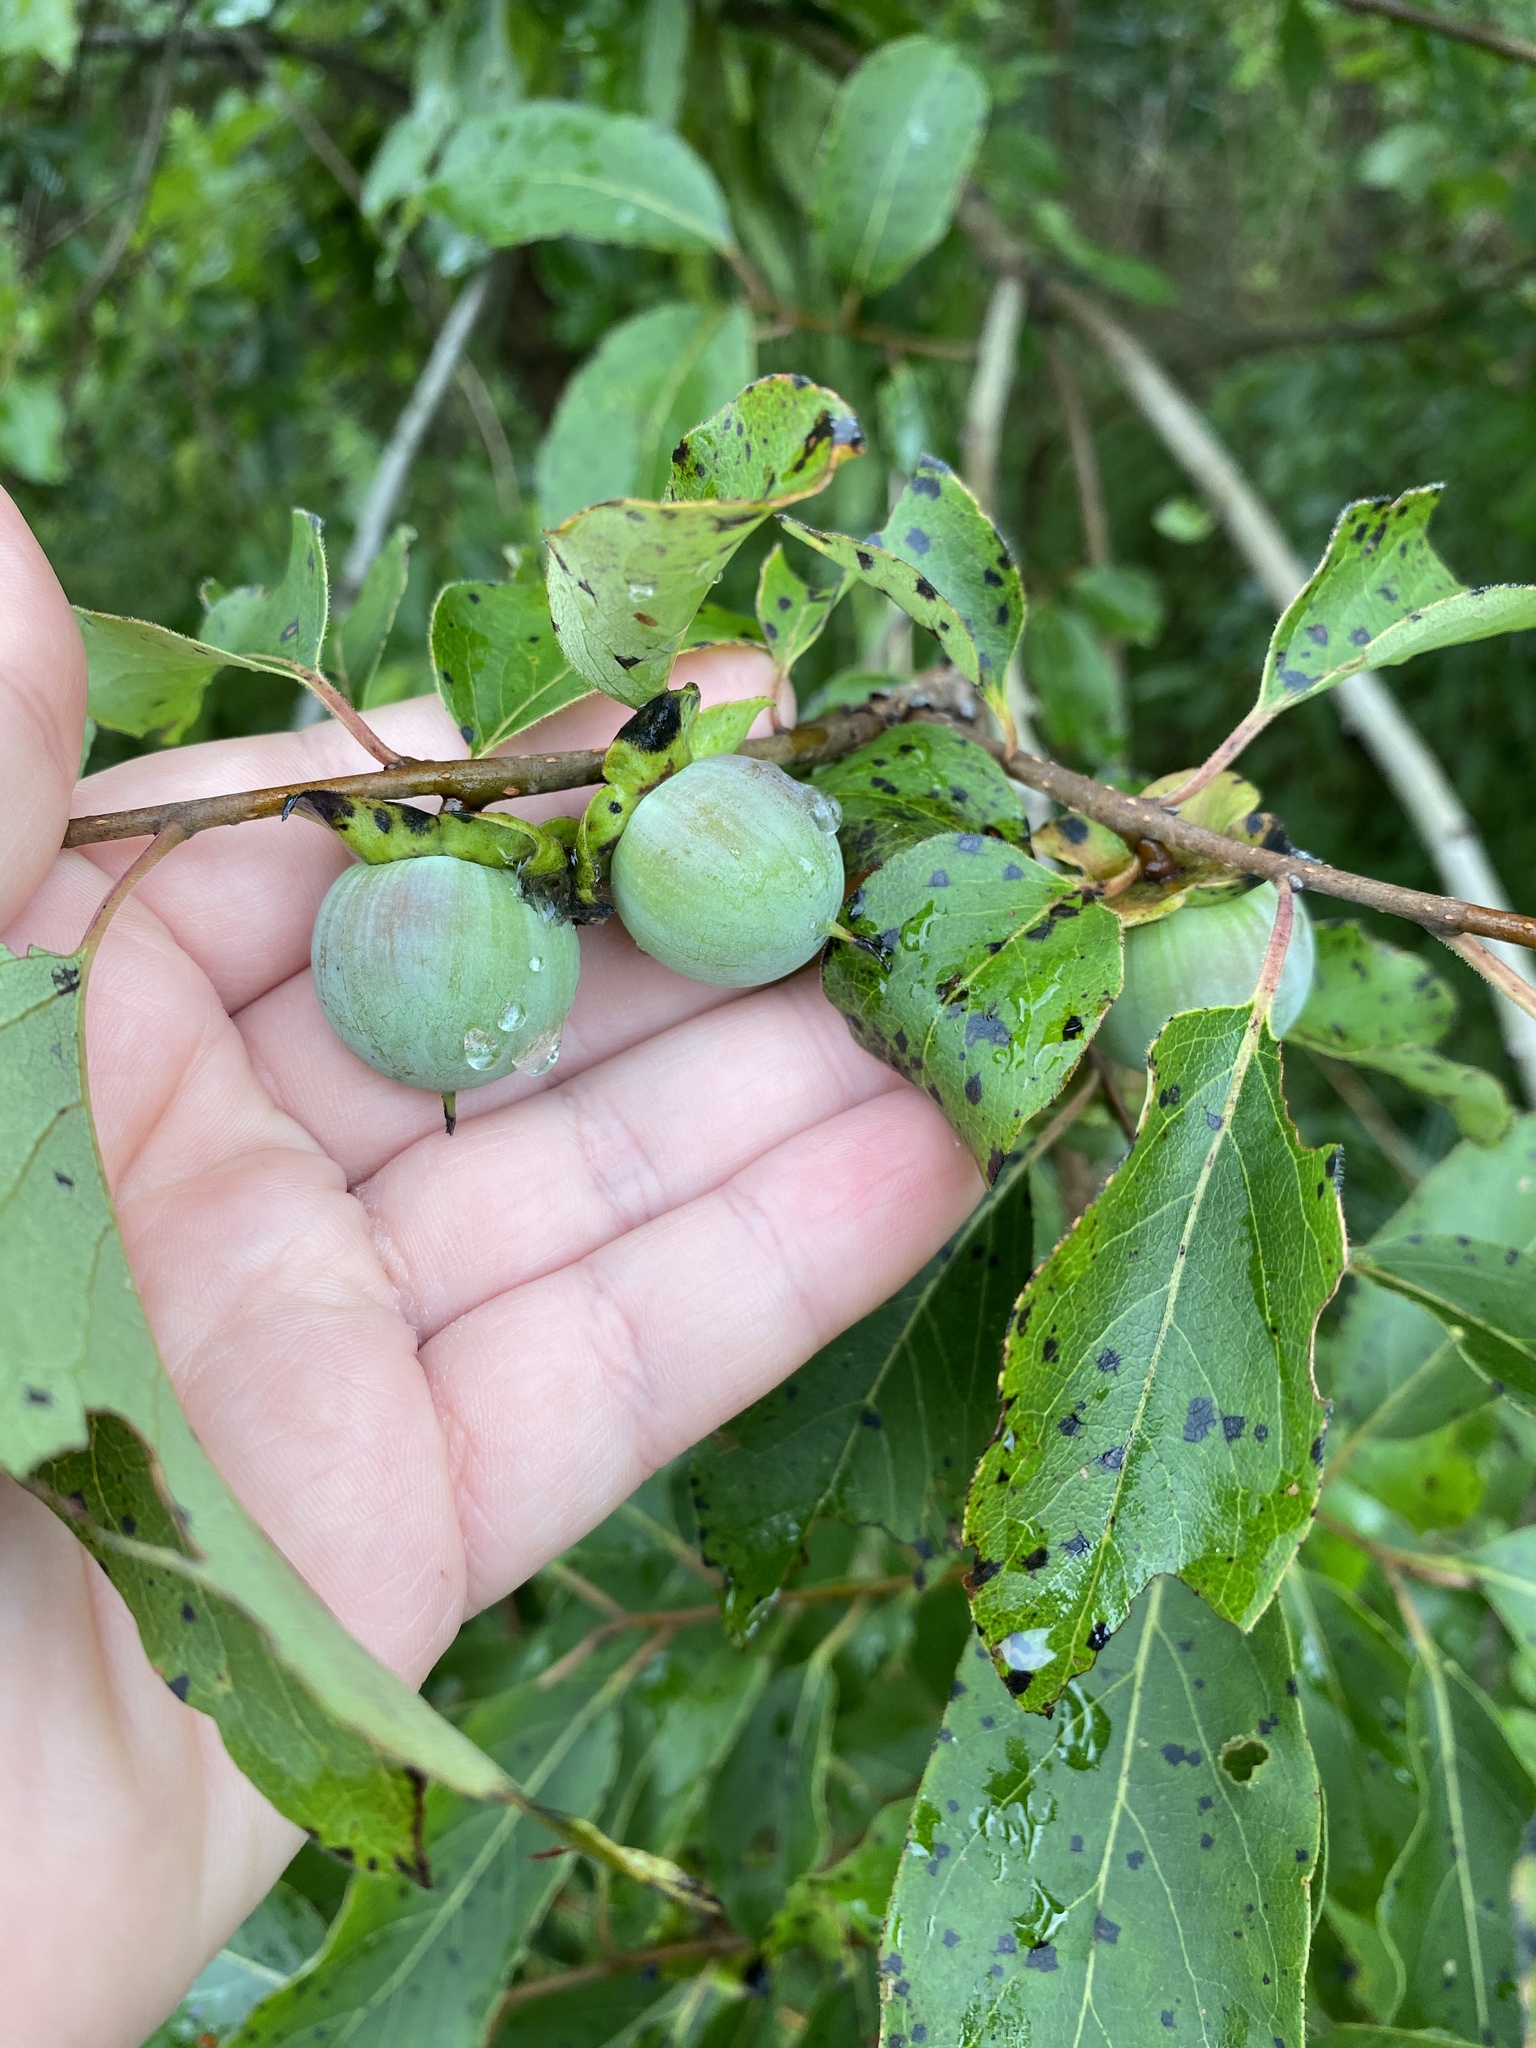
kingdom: Plantae
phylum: Tracheophyta
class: Magnoliopsida
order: Ericales
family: Ebenaceae
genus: Diospyros
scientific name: Diospyros virginiana
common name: Persimmon
